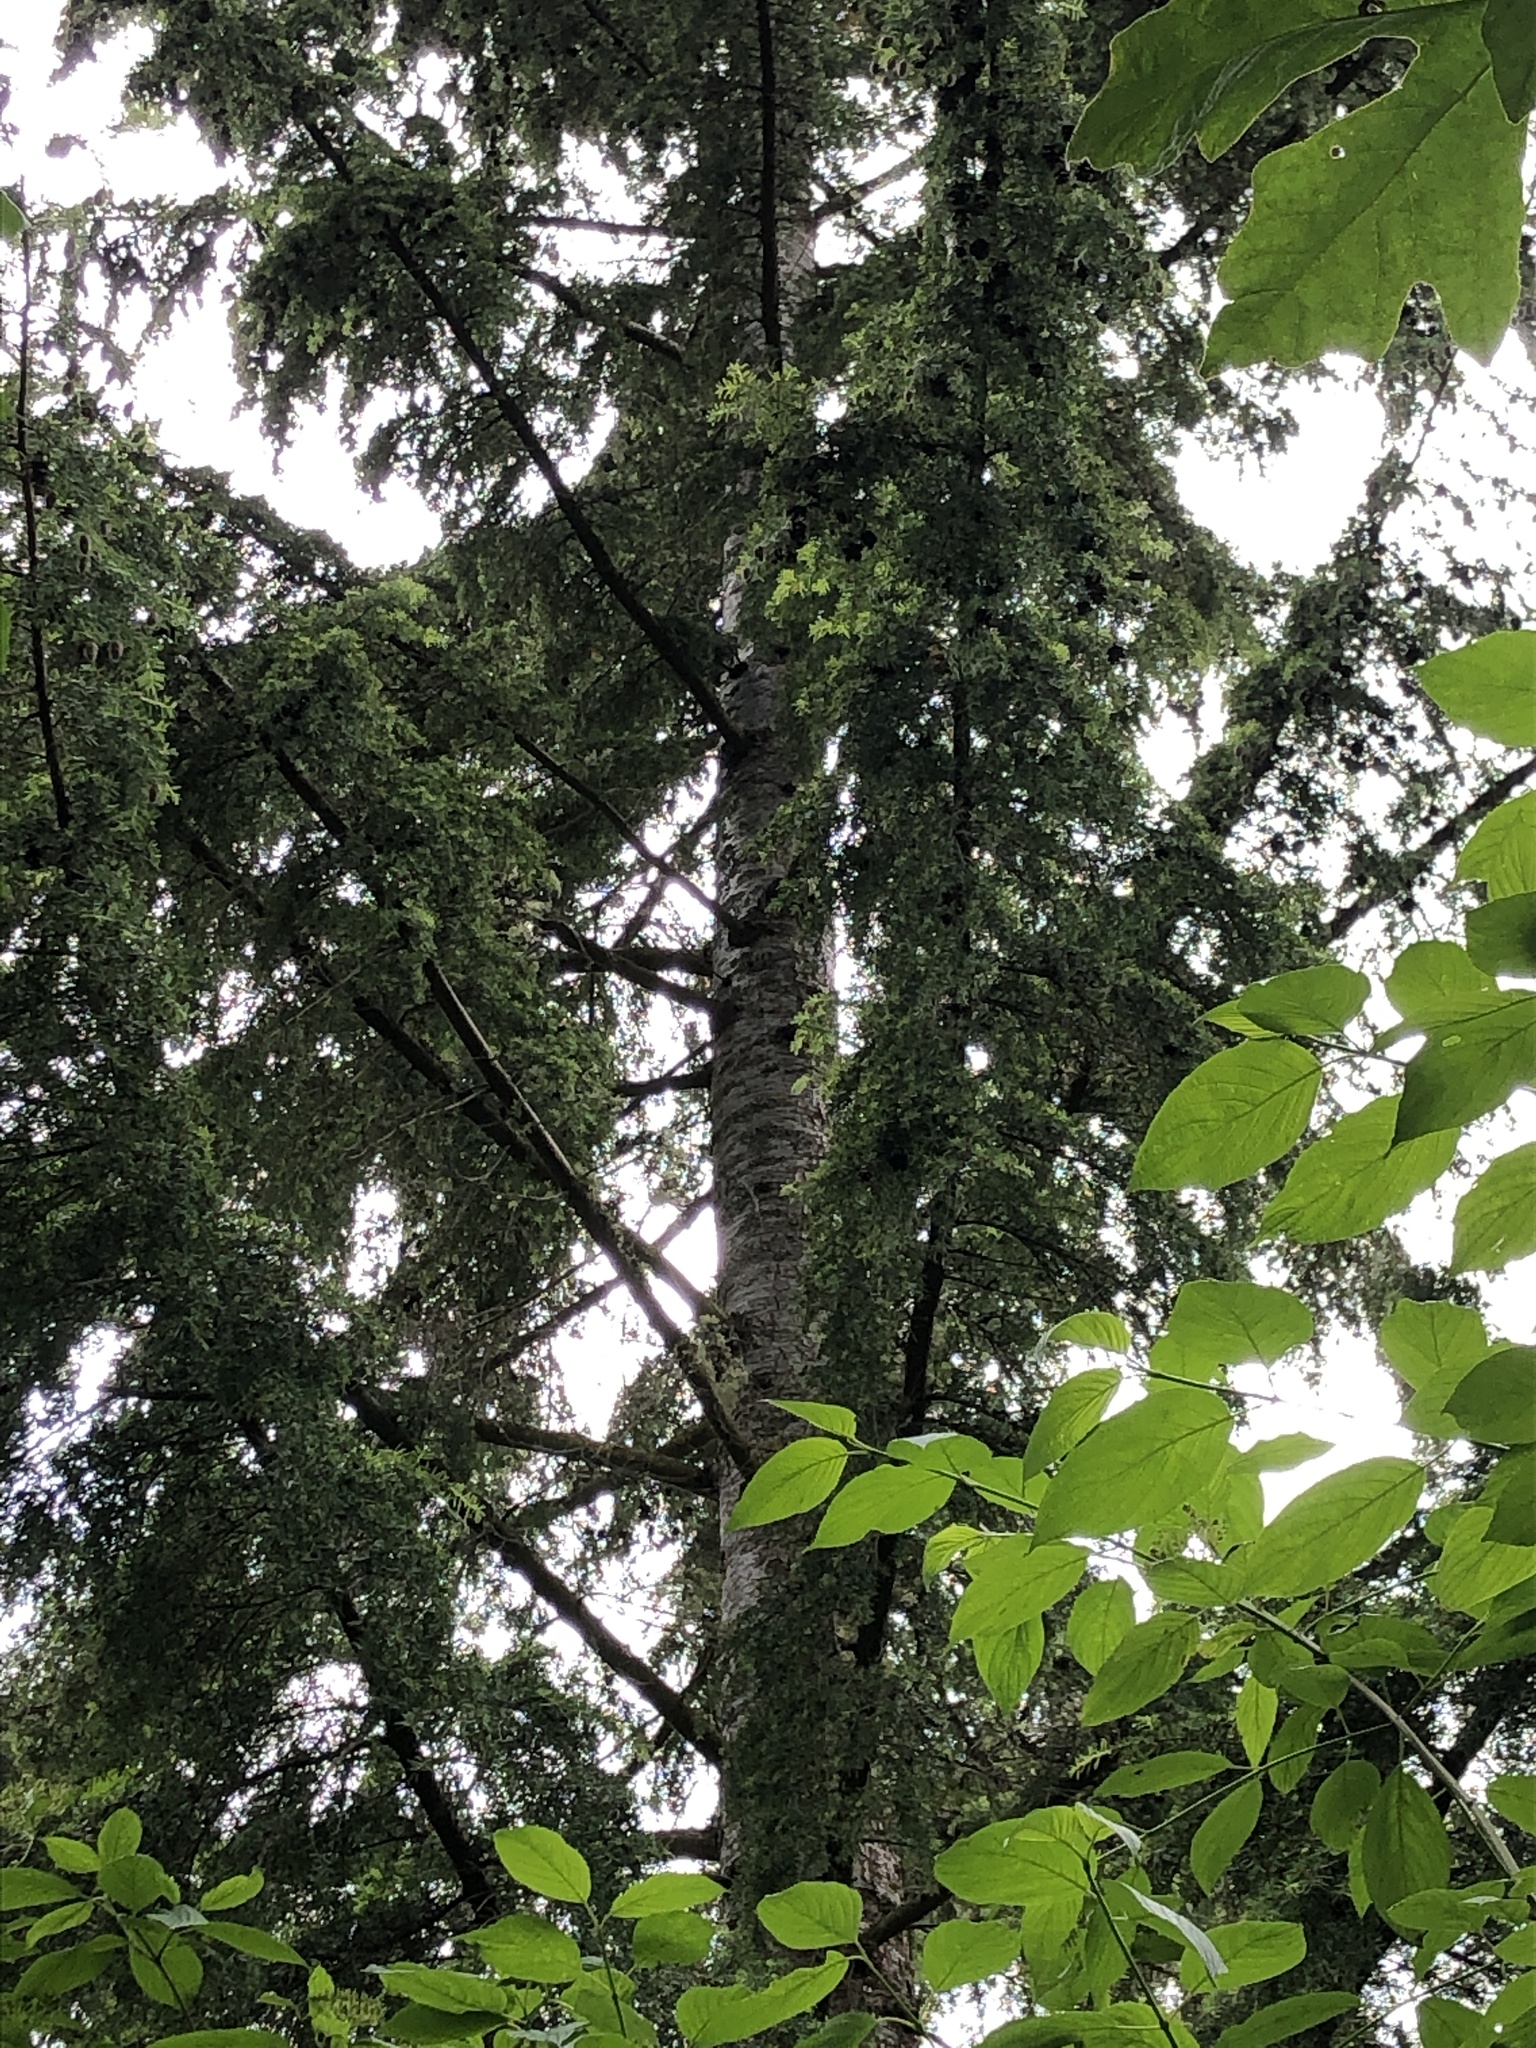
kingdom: Plantae
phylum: Tracheophyta
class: Pinopsida
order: Pinales
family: Pinaceae
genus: Tsuga
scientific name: Tsuga heterophylla
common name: Western hemlock
